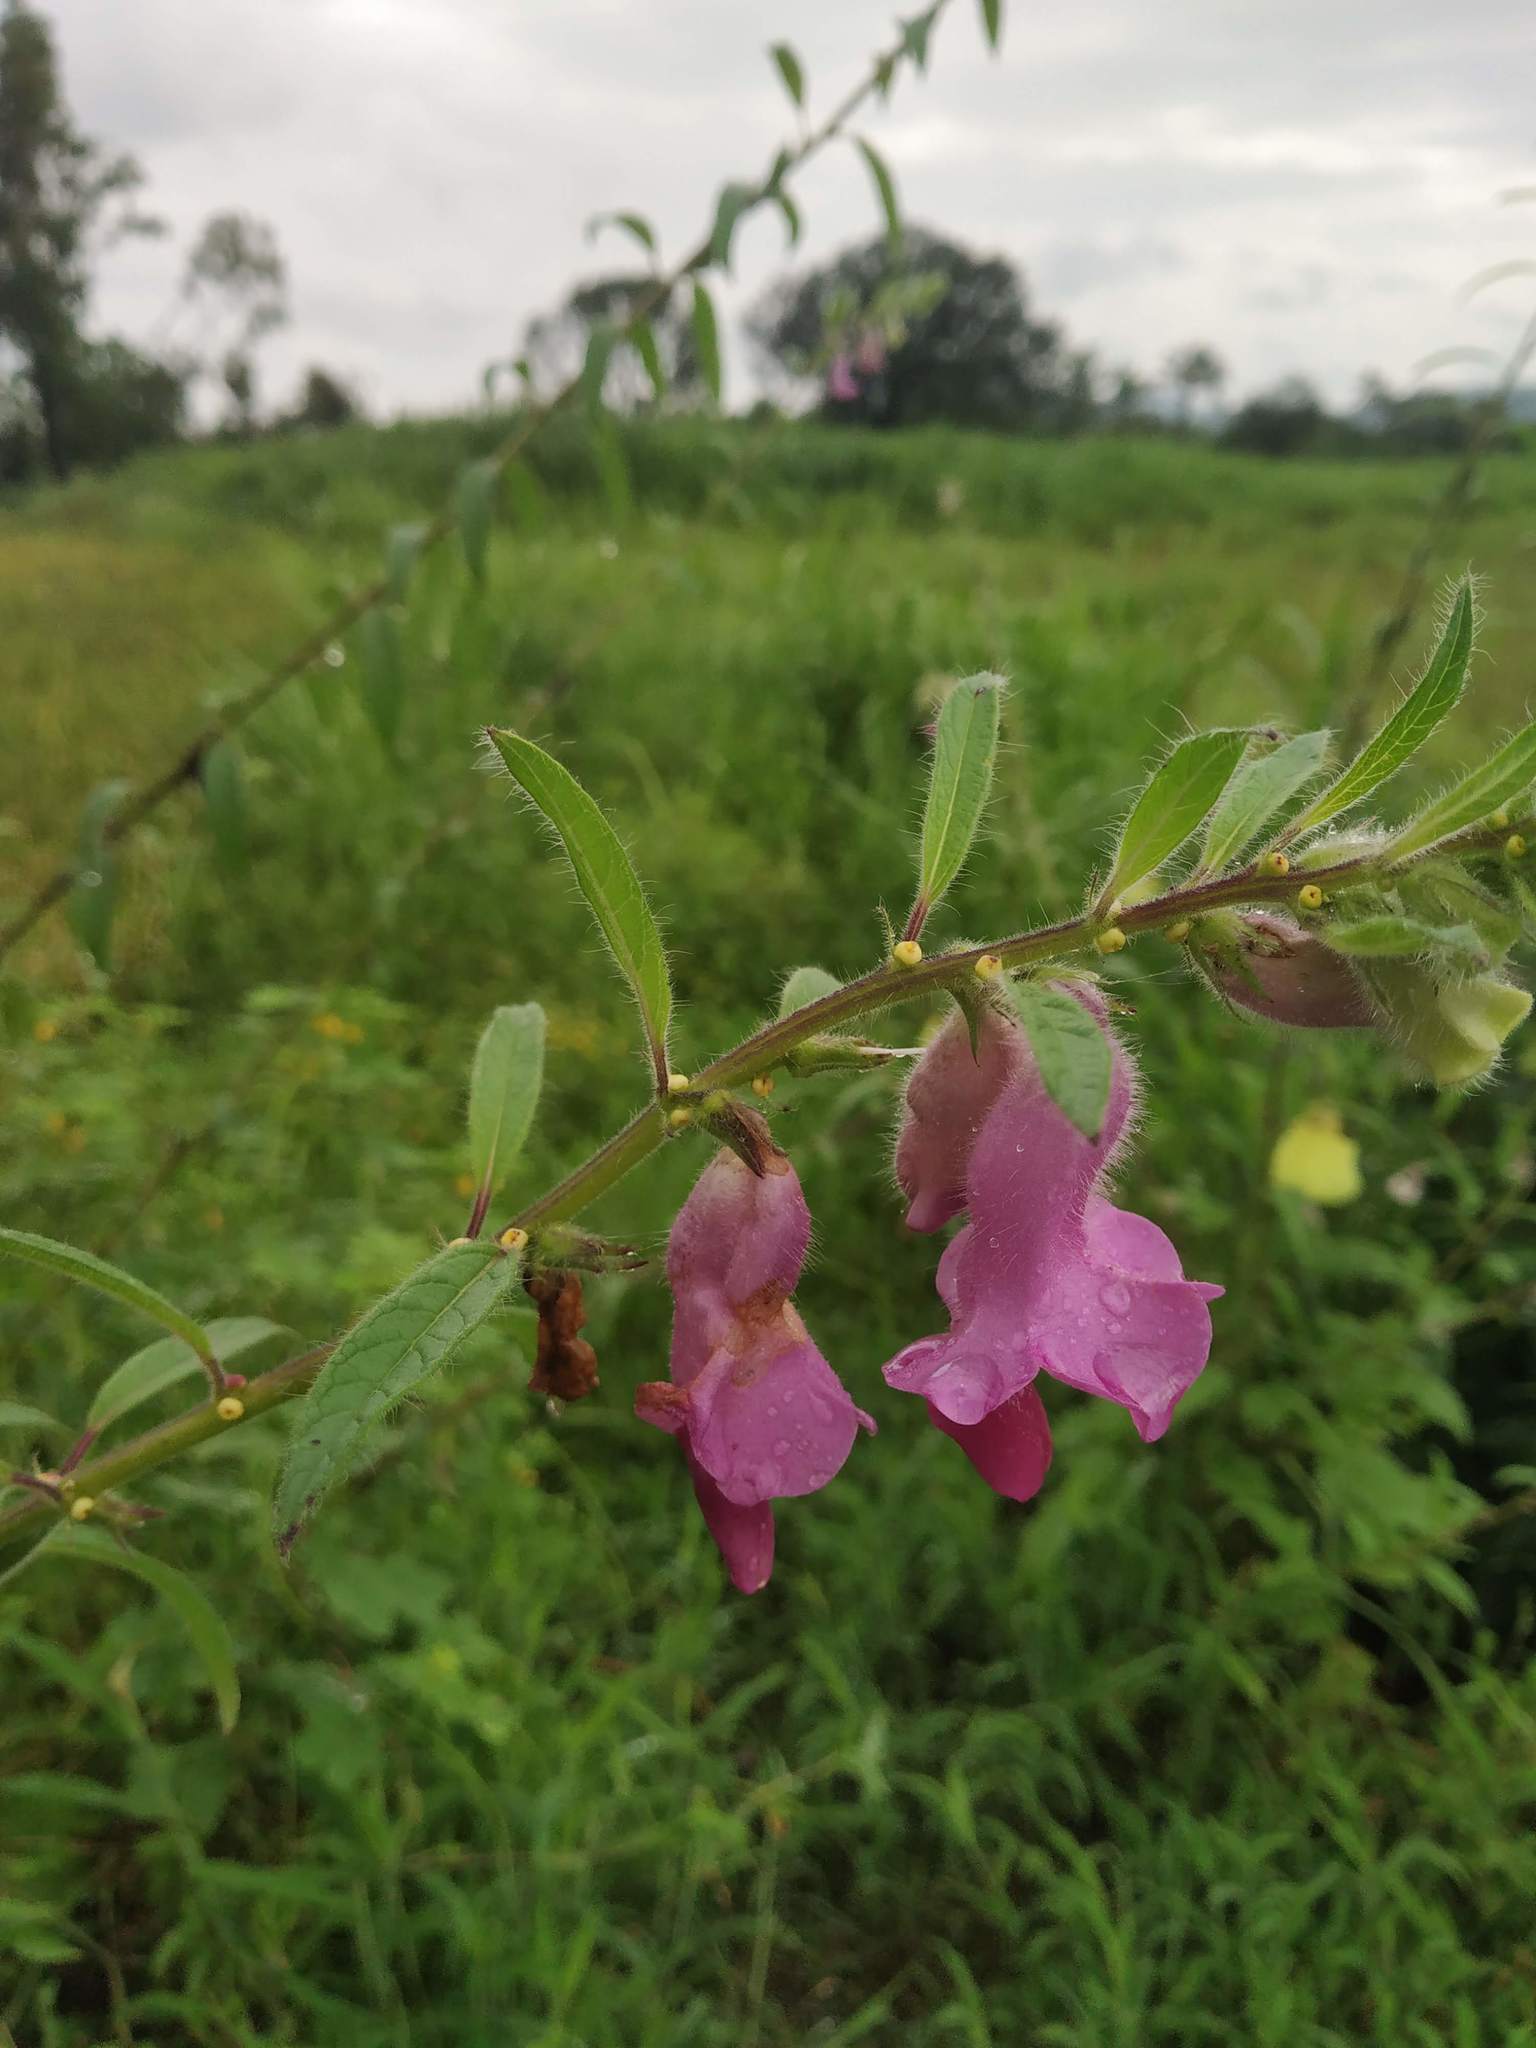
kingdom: Plantae
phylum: Tracheophyta
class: Magnoliopsida
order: Lamiales
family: Pedaliaceae
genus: Sesamum
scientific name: Sesamum indicum
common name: Sesame
